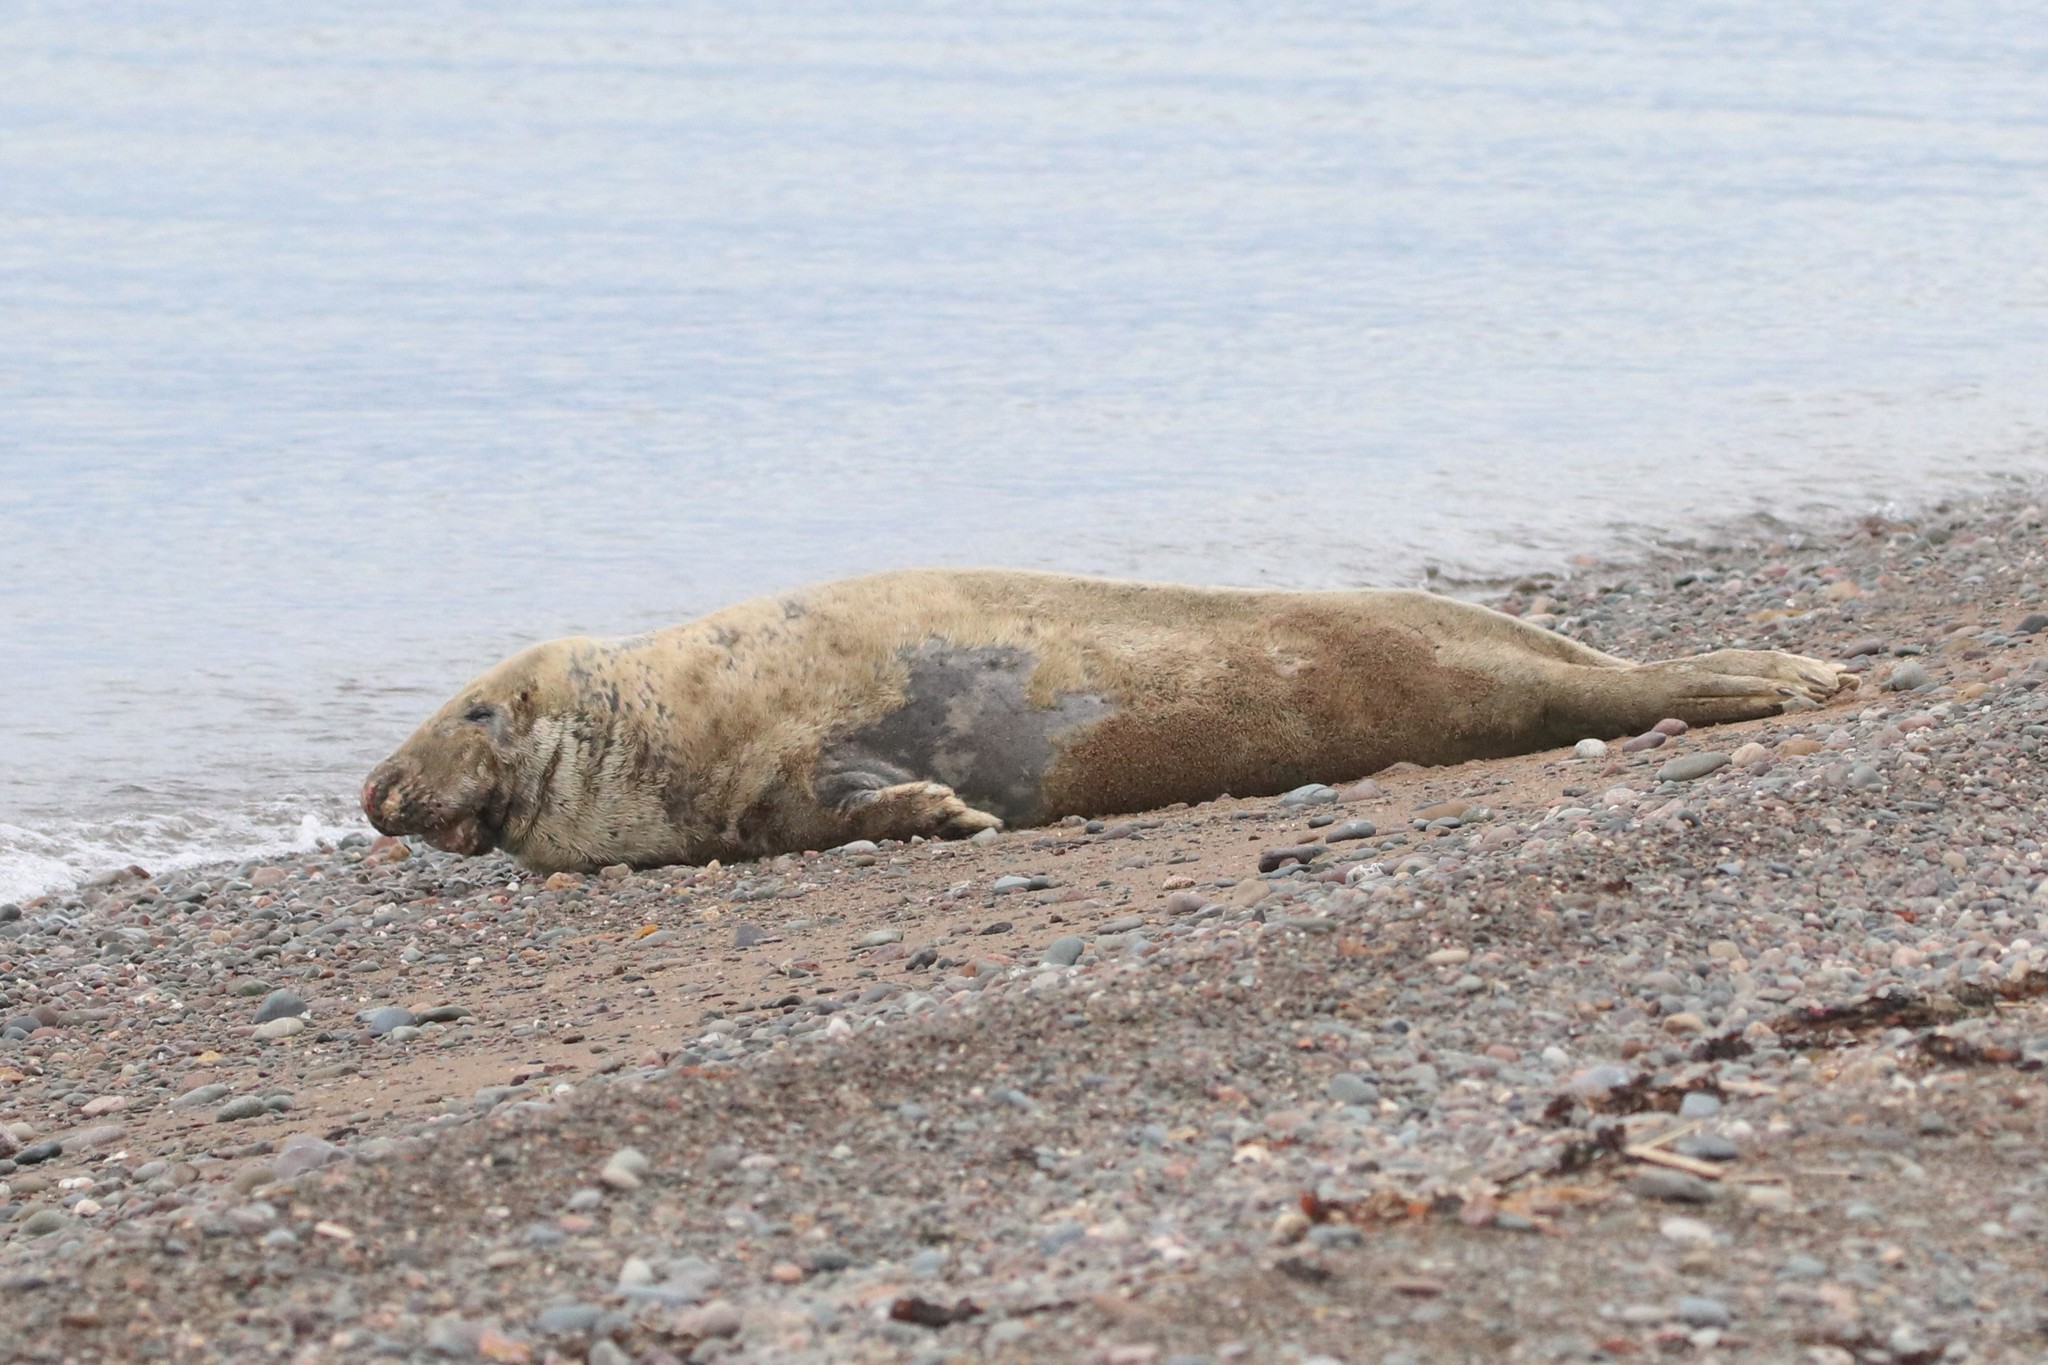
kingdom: Animalia
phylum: Chordata
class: Mammalia
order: Carnivora
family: Phocidae
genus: Halichoerus
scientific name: Halichoerus grypus
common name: Grey seal
